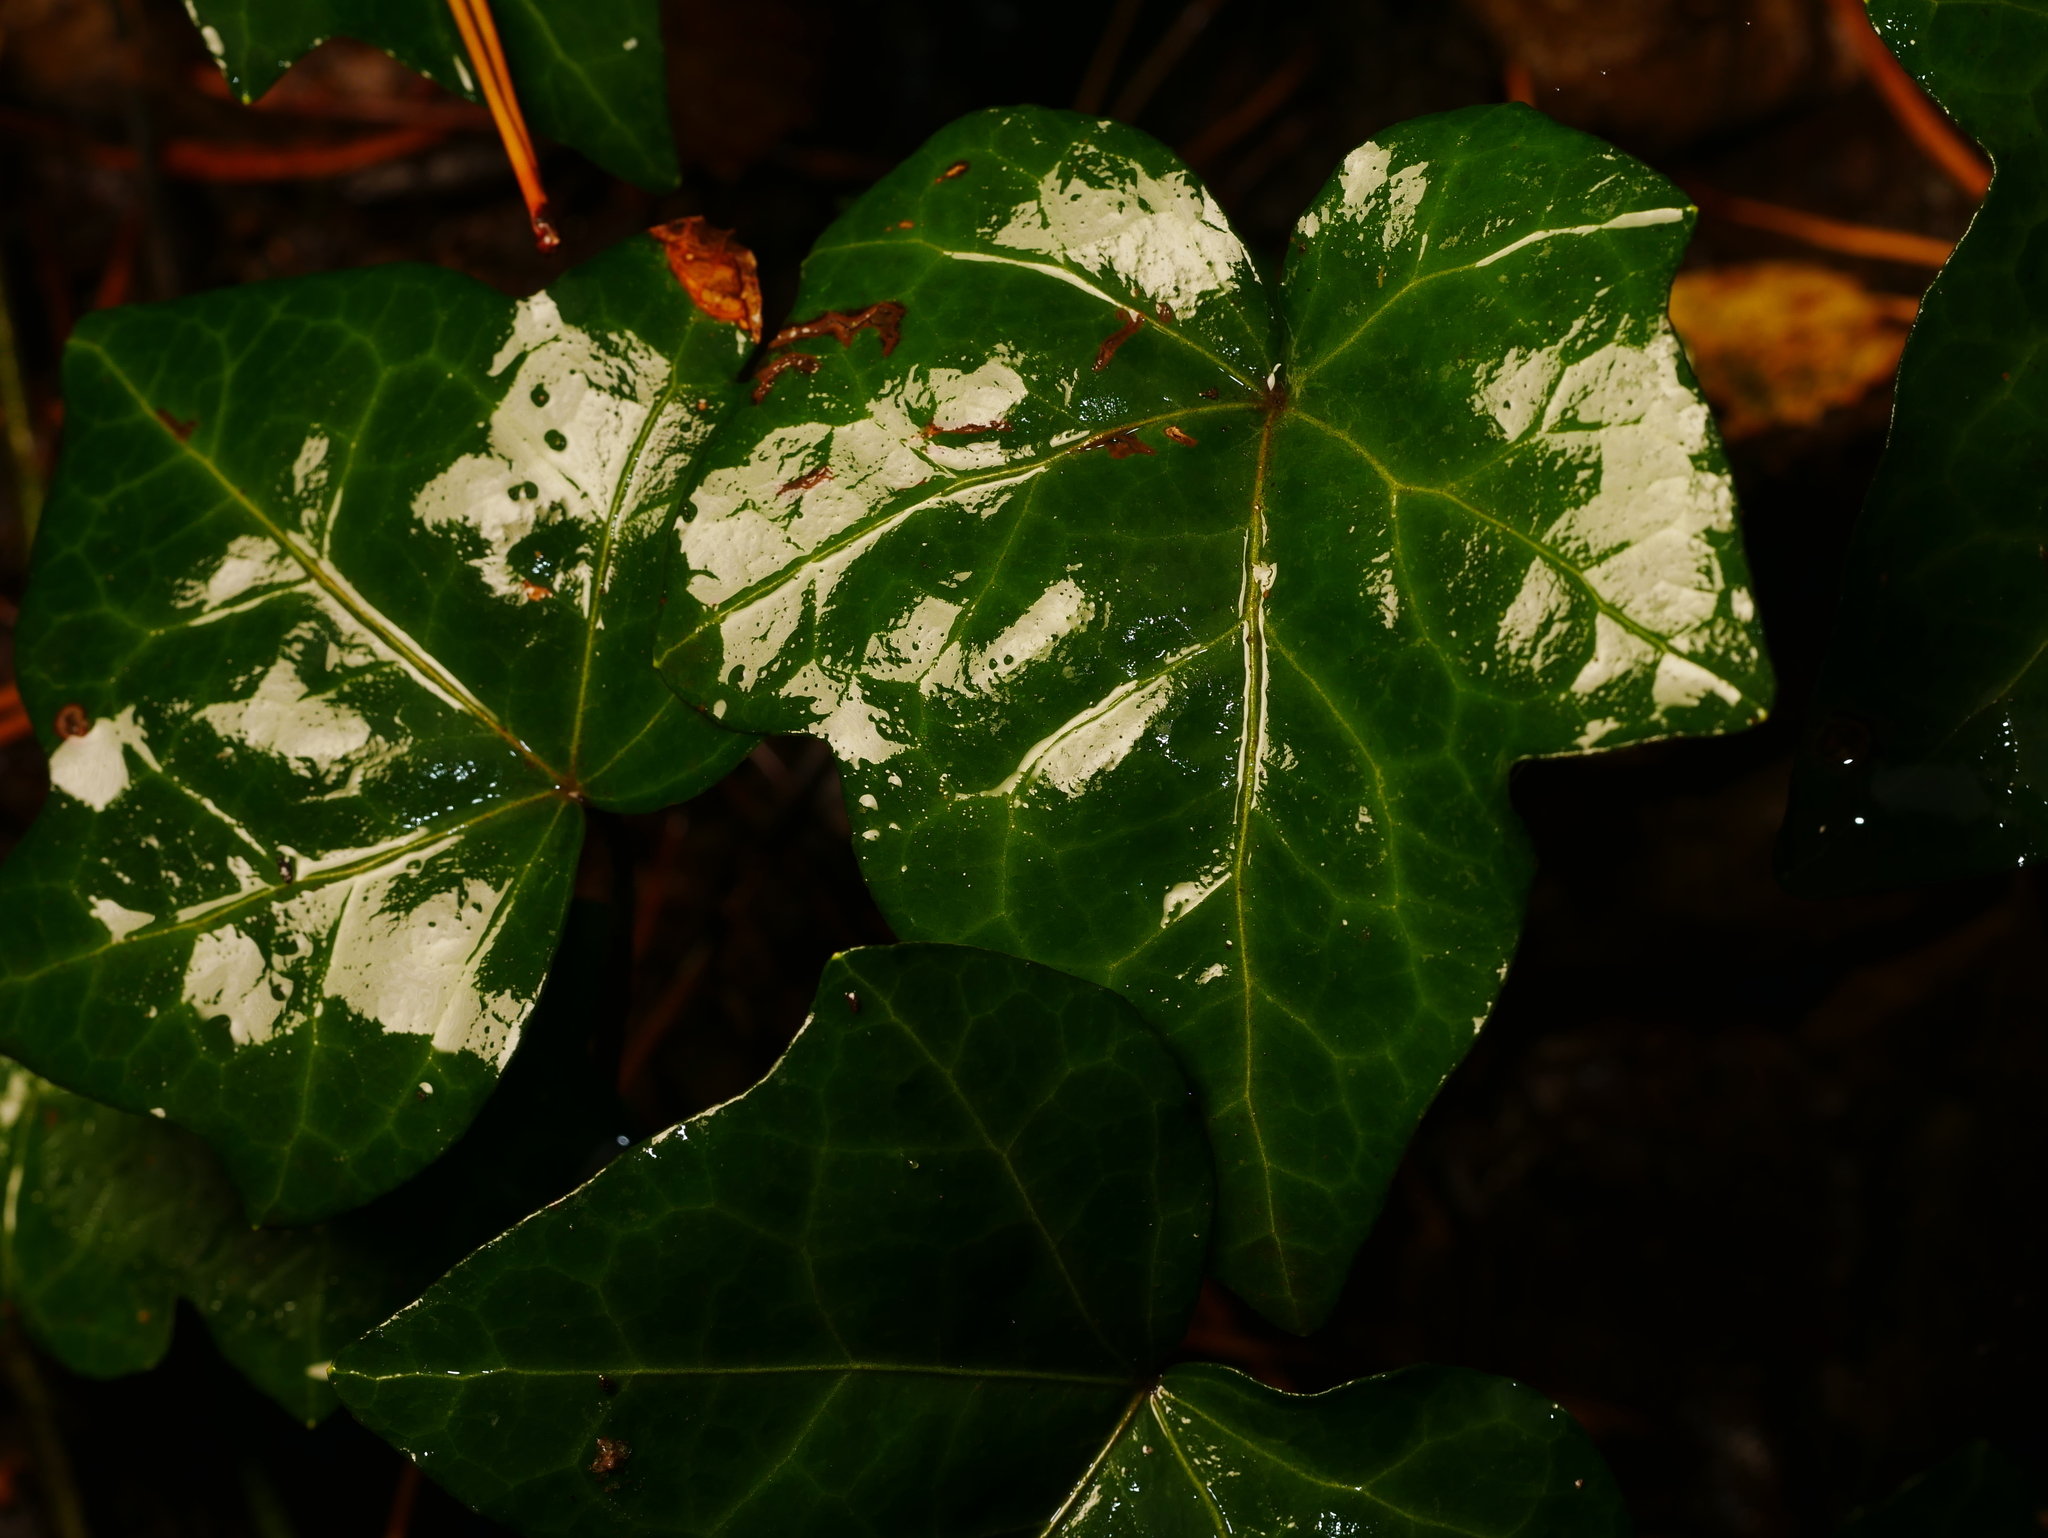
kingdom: Plantae
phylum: Tracheophyta
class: Magnoliopsida
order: Apiales
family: Araliaceae
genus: Hedera
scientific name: Hedera helix
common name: Ivy
